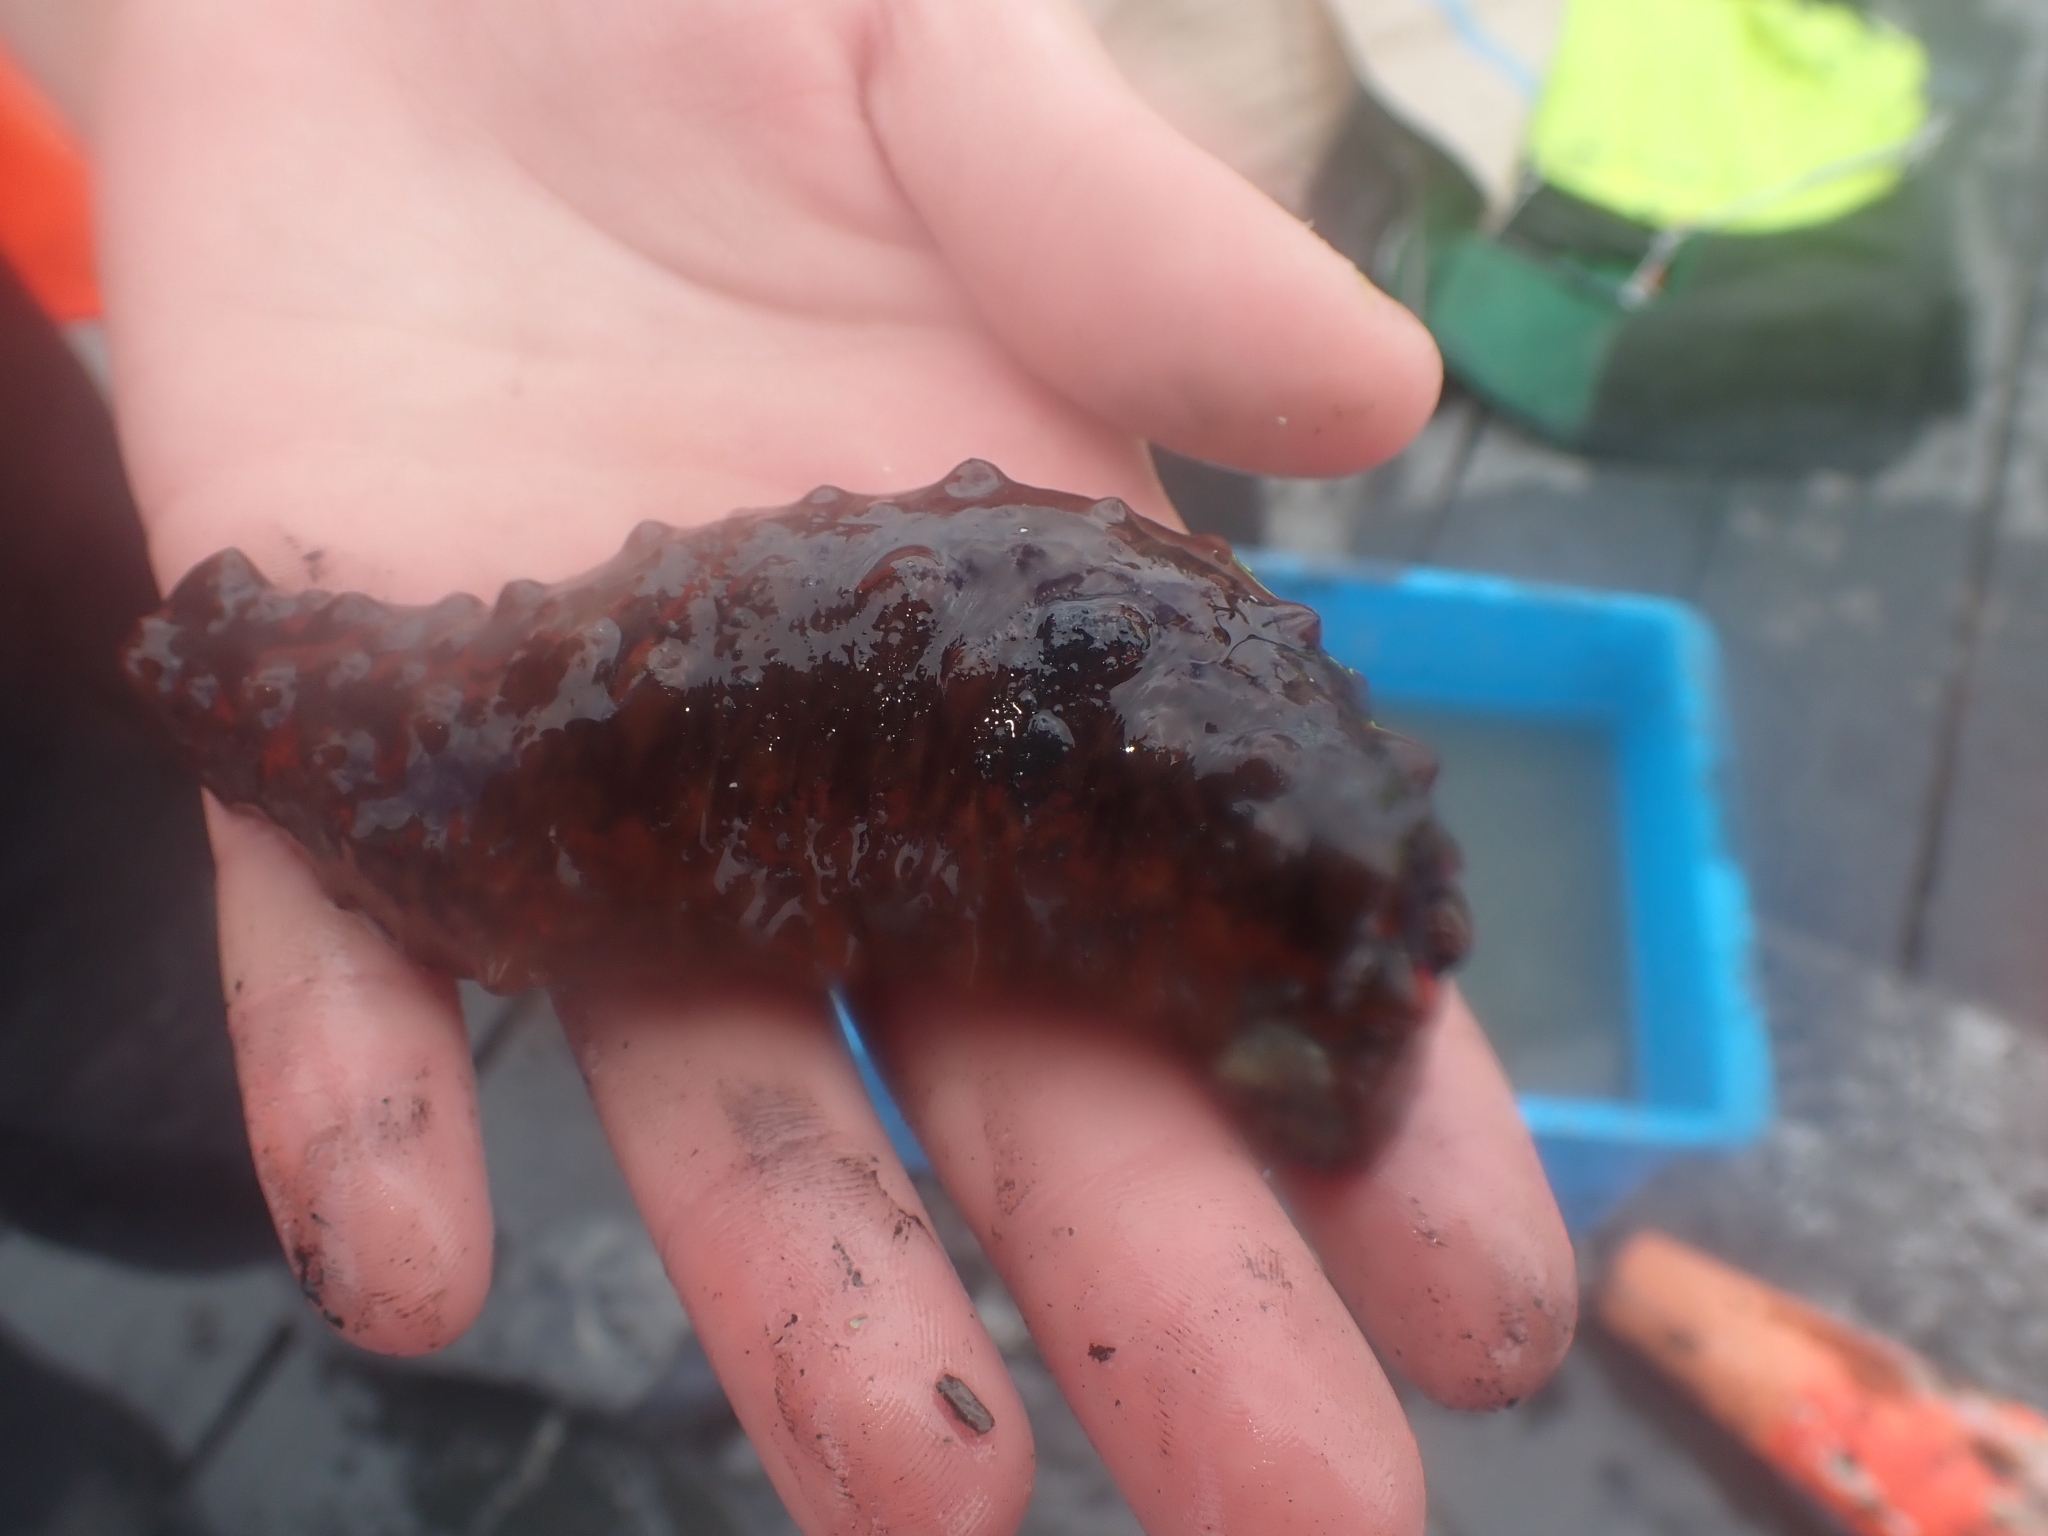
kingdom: Animalia
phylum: Echinodermata
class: Holothuroidea
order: Synallactida
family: Stichopodidae
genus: Australostichopus
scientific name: Australostichopus mollis
